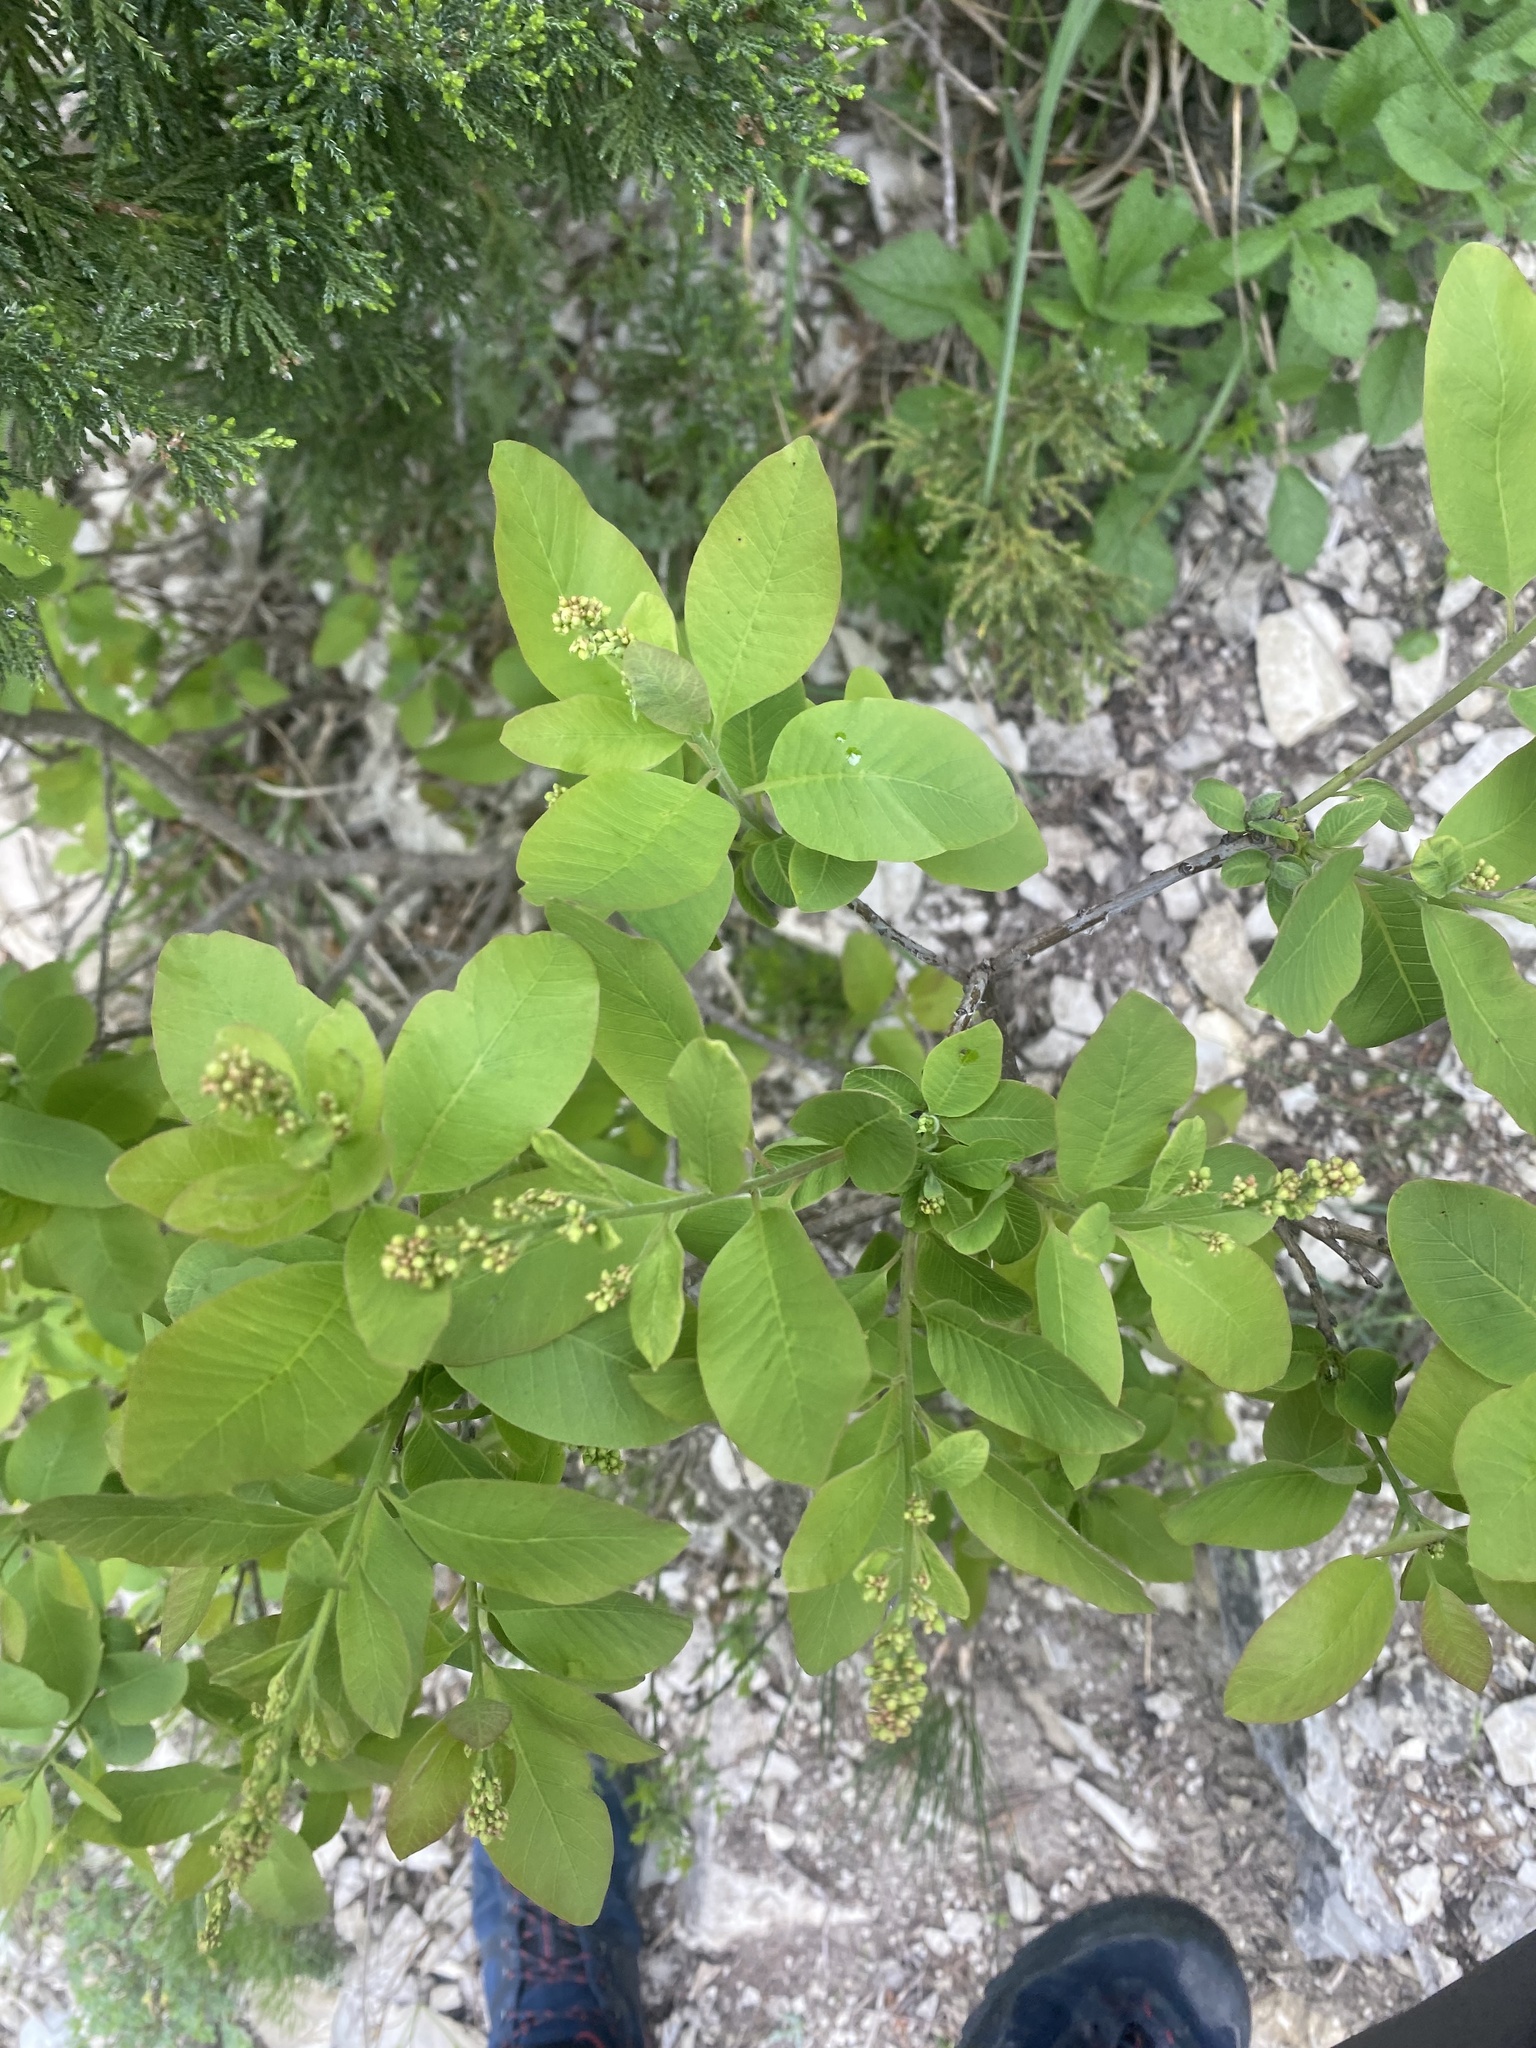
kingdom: Plantae
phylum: Tracheophyta
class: Magnoliopsida
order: Sapindales
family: Anacardiaceae
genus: Cotinus
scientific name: Cotinus coggygria
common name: Smoke-tree
